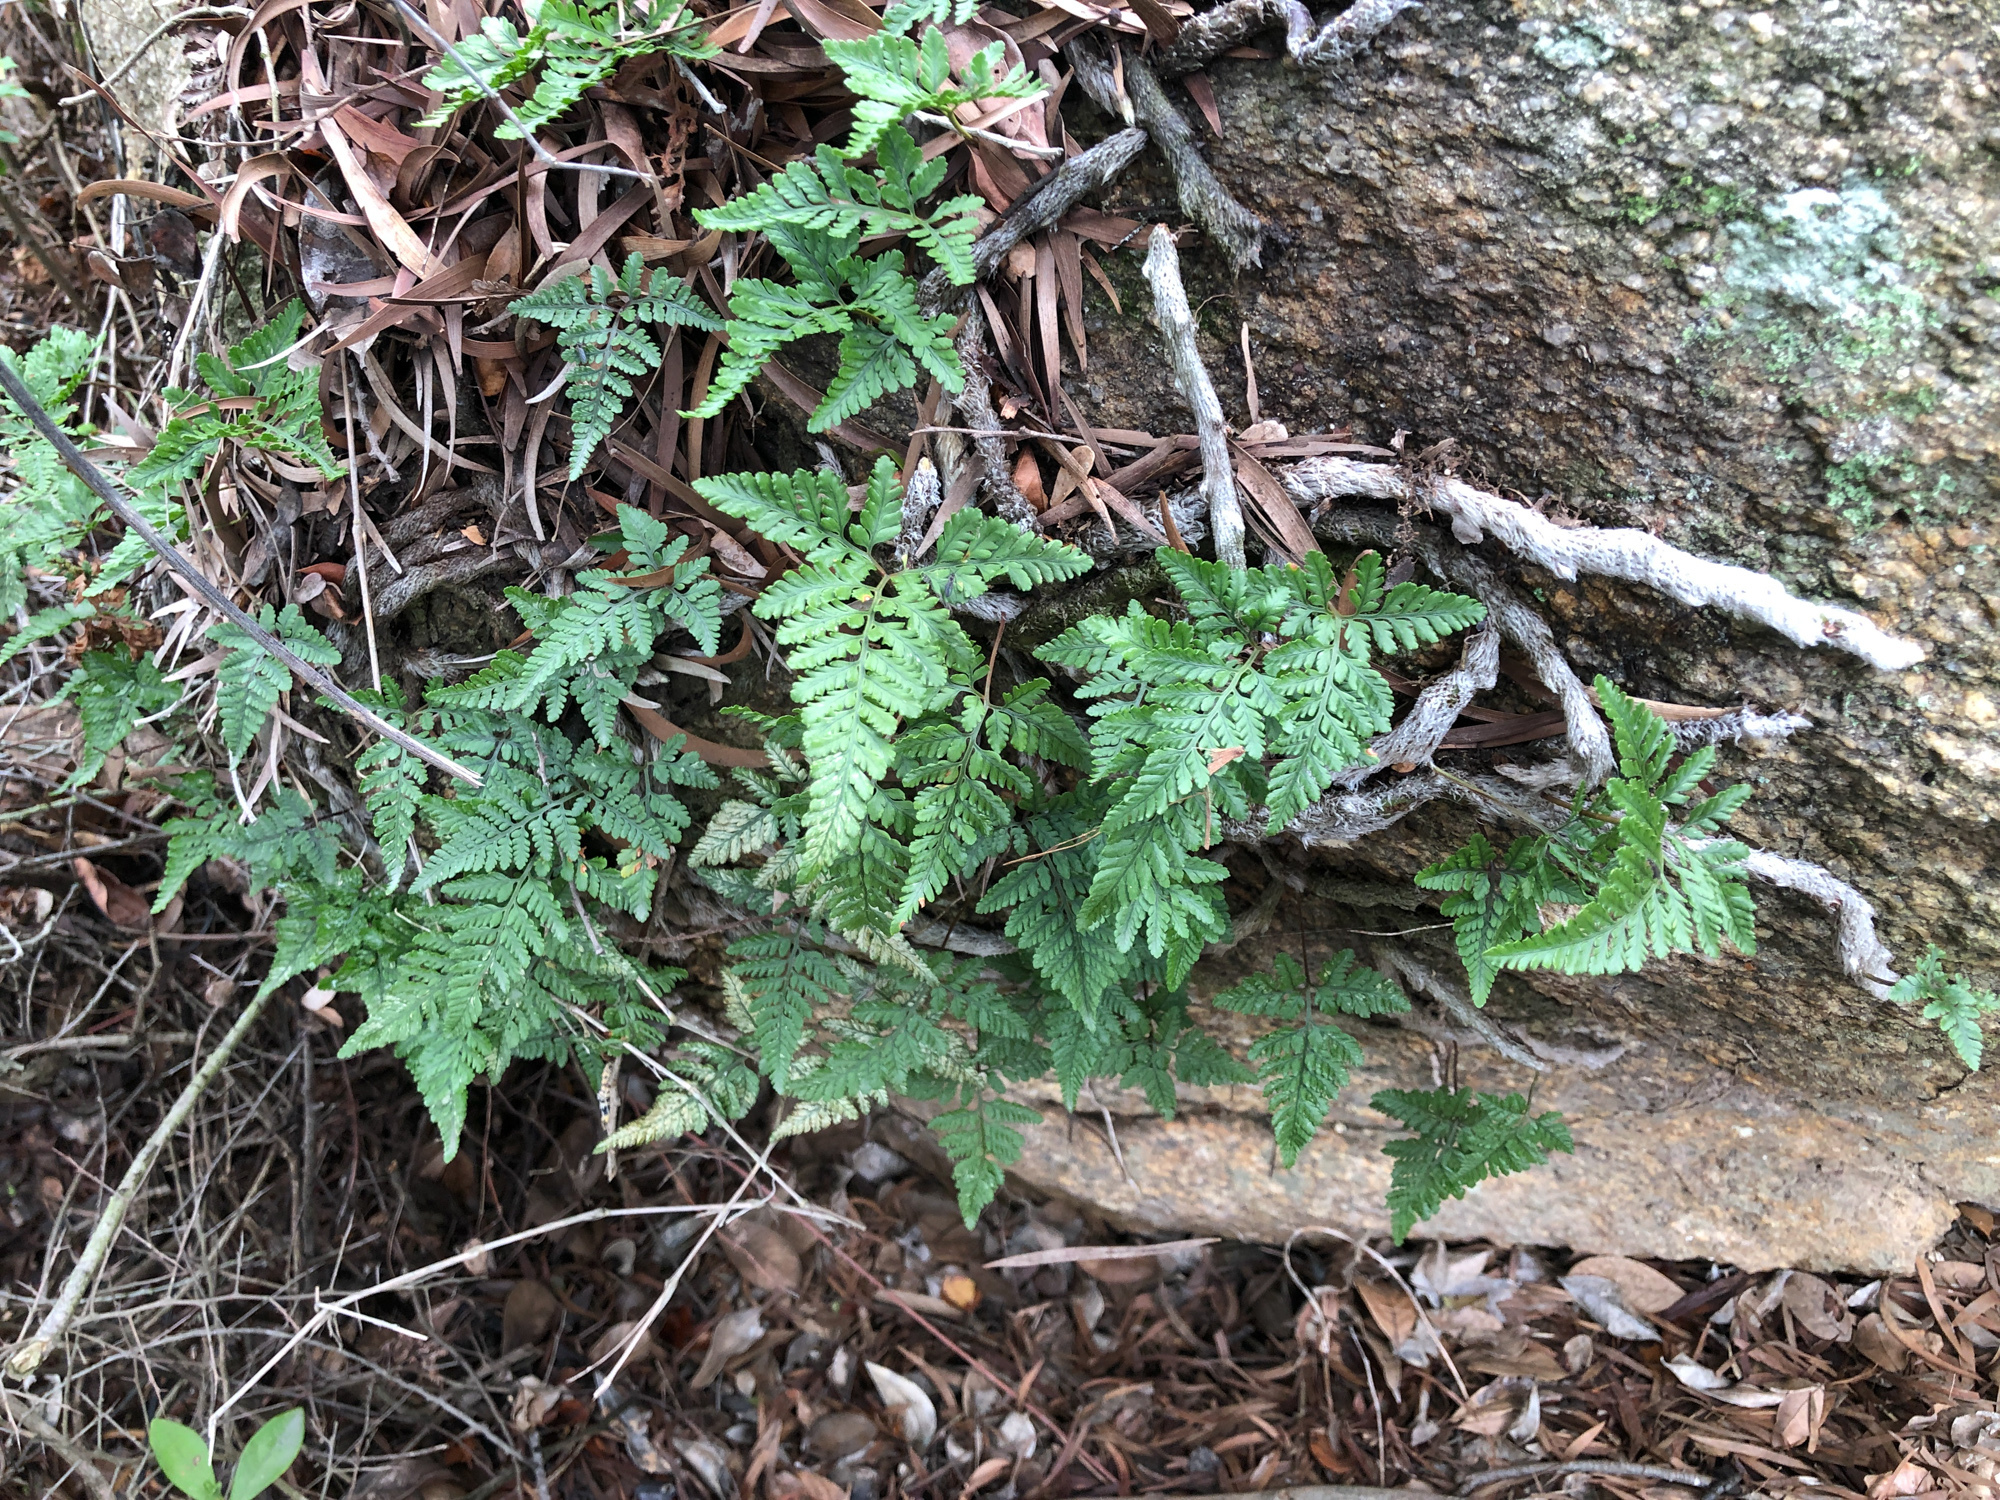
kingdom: Plantae
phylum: Tracheophyta
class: Polypodiopsida
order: Polypodiales
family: Davalliaceae
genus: Davallia
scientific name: Davallia griffithiana
